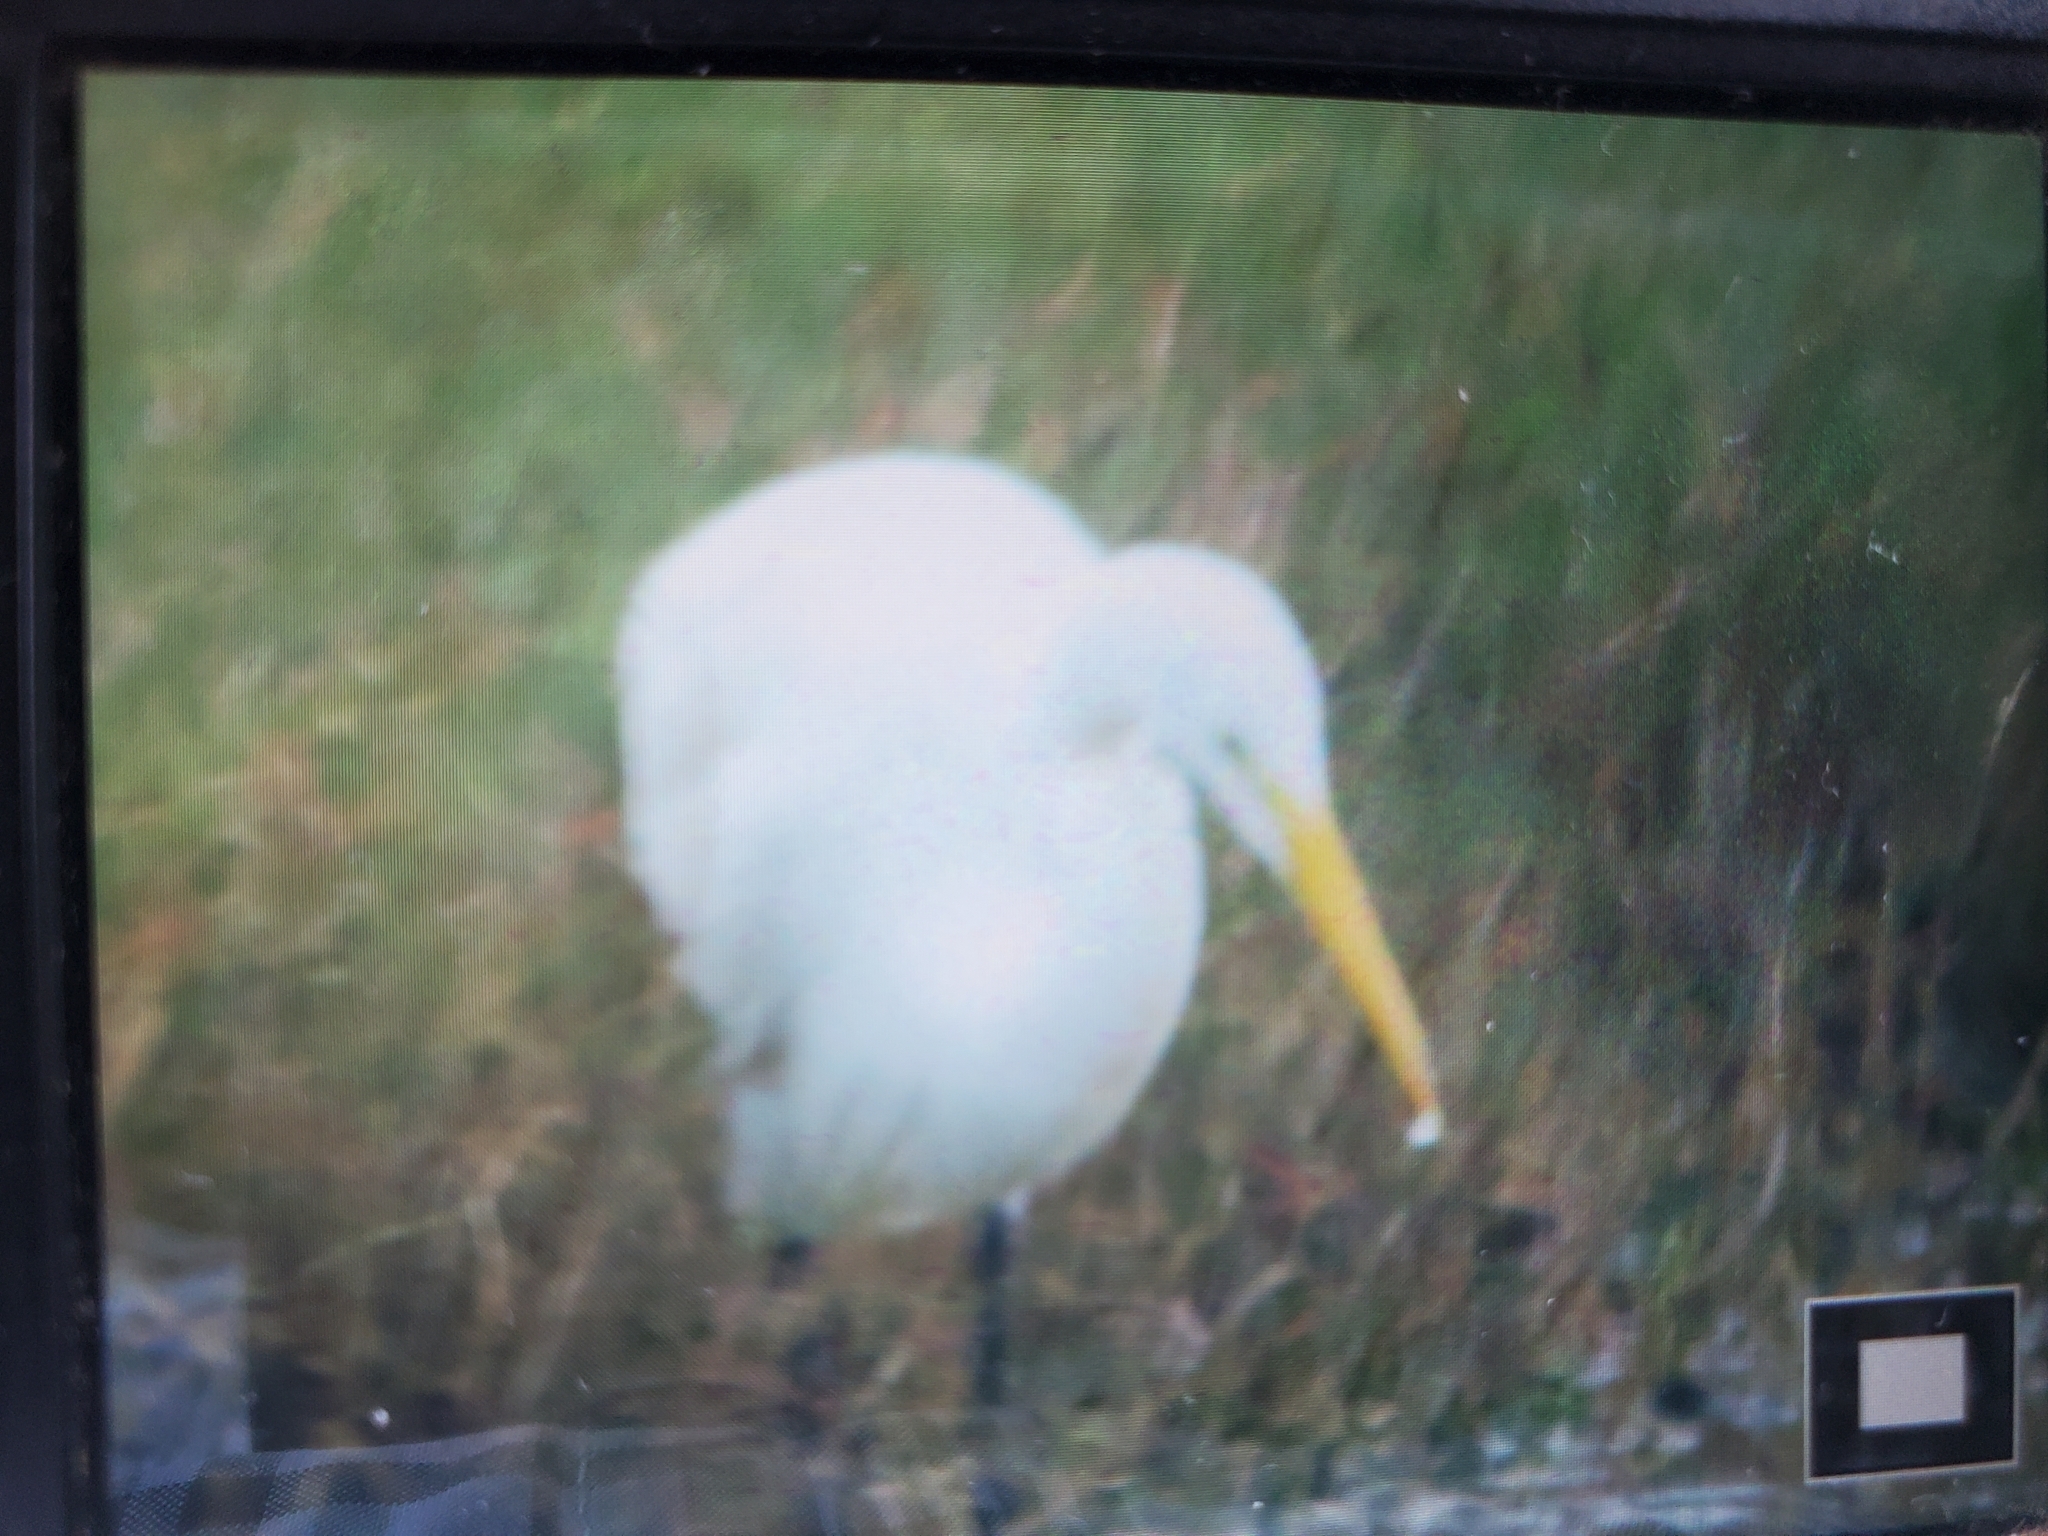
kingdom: Animalia
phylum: Chordata
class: Aves
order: Pelecaniformes
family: Ardeidae
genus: Ardea
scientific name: Ardea alba
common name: Great egret
